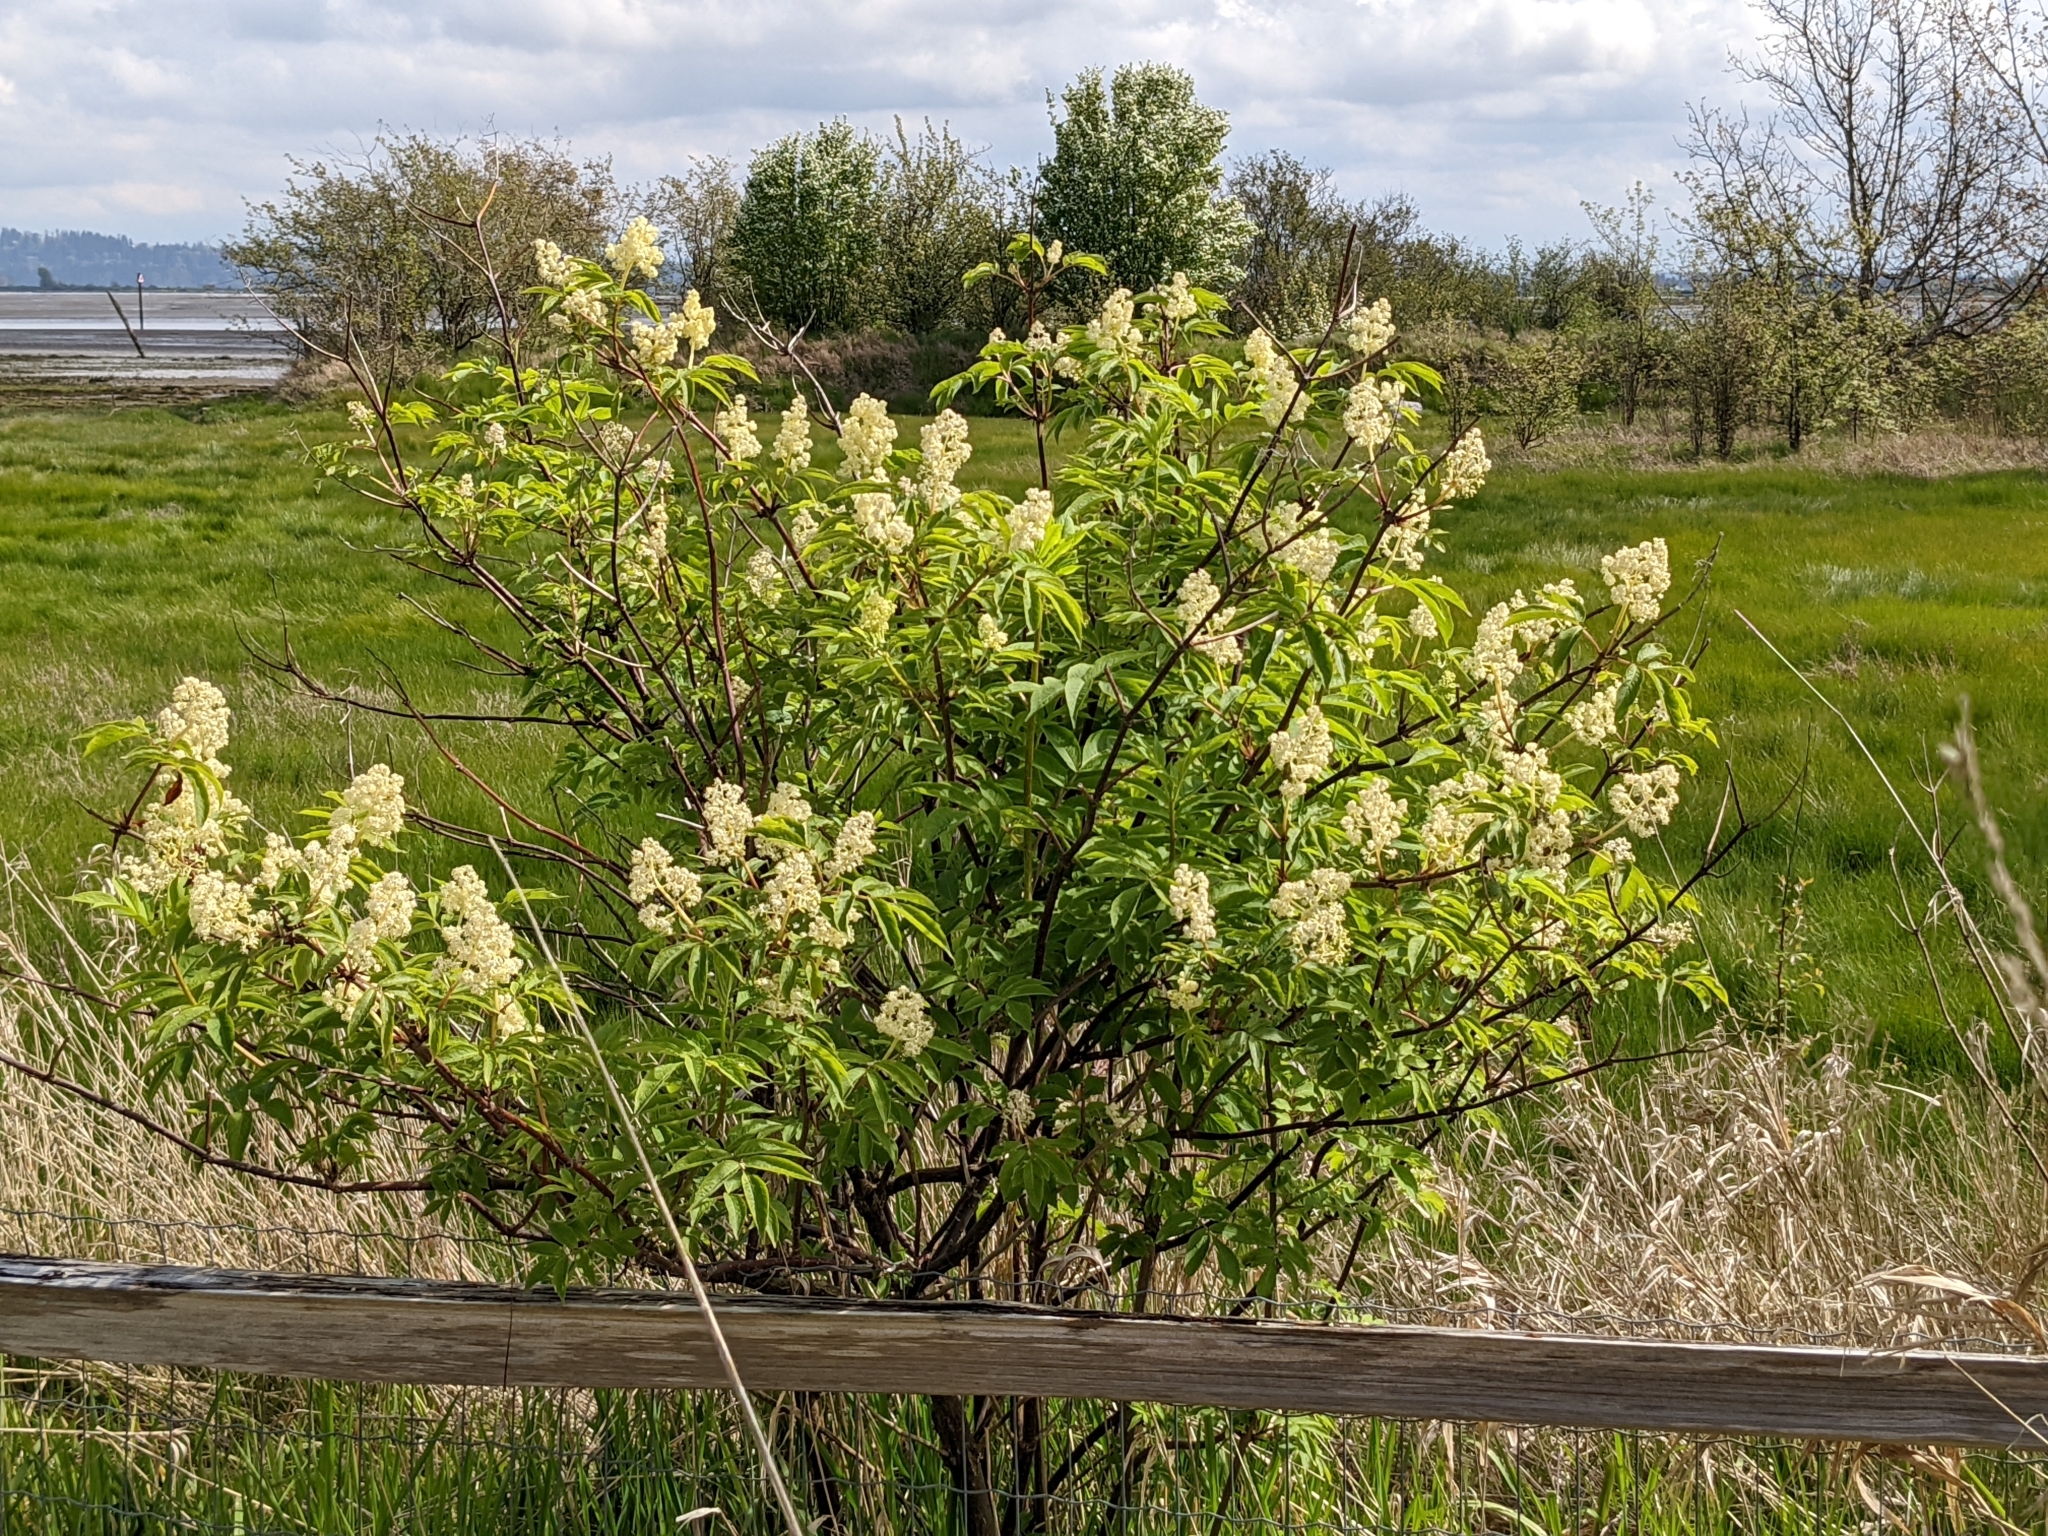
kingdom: Plantae
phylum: Tracheophyta
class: Magnoliopsida
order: Dipsacales
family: Viburnaceae
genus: Sambucus
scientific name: Sambucus racemosa
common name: Red-berried elder
